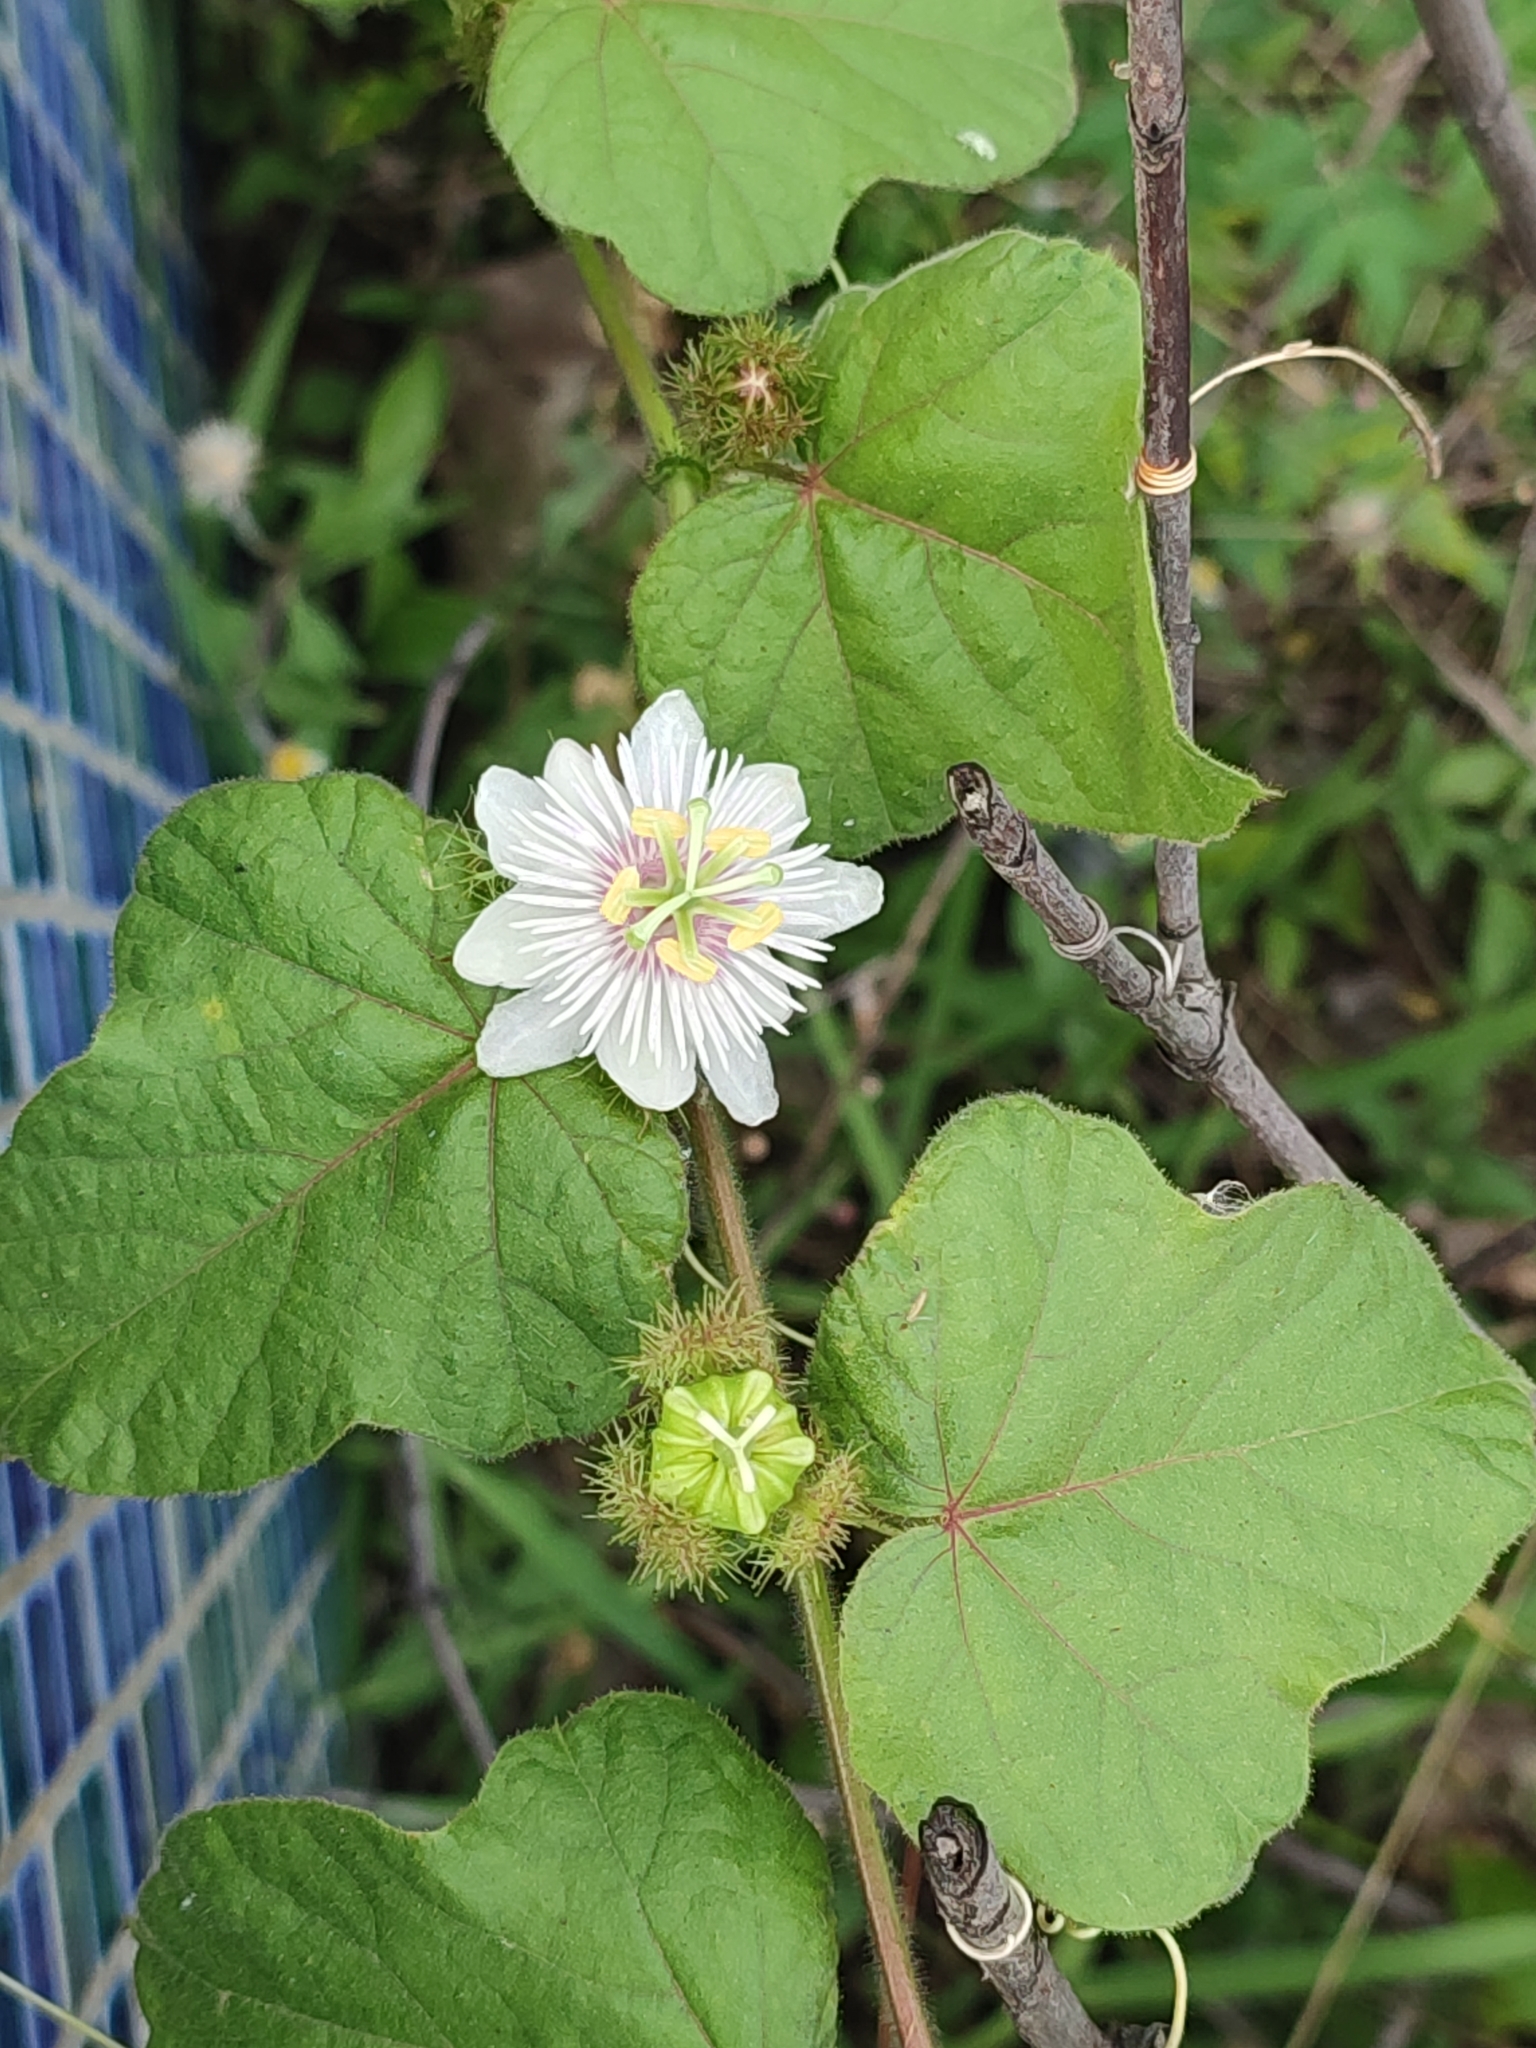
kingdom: Plantae
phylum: Tracheophyta
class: Magnoliopsida
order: Malpighiales
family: Passifloraceae
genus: Passiflora
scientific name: Passiflora vesicaria
